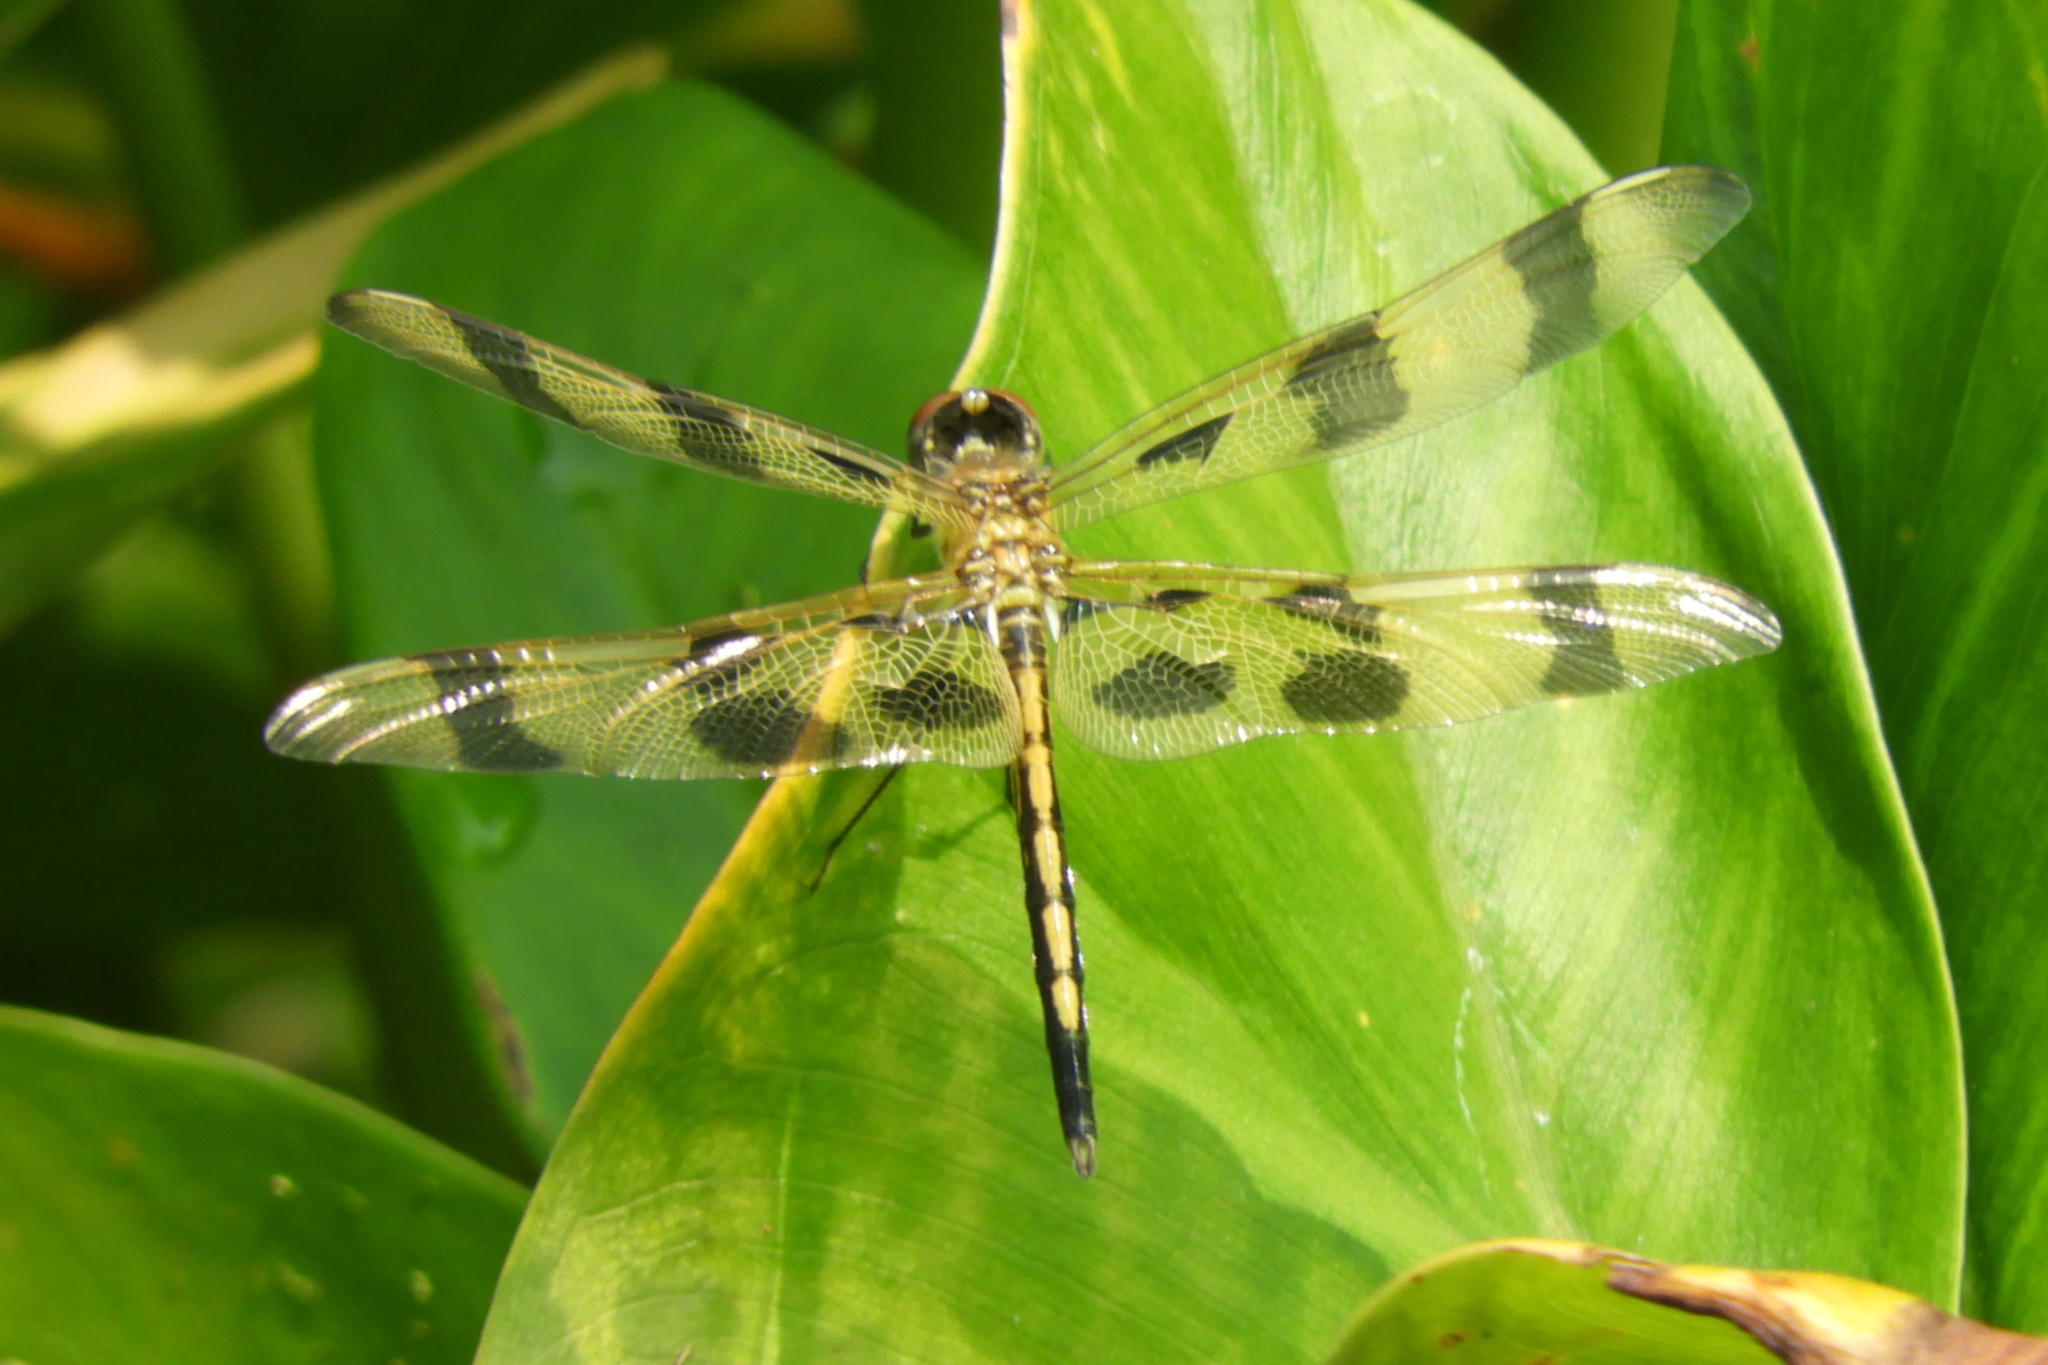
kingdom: Animalia
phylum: Arthropoda
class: Insecta
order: Odonata
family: Libellulidae
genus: Celithemis
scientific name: Celithemis eponina
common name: Halloween pennant
